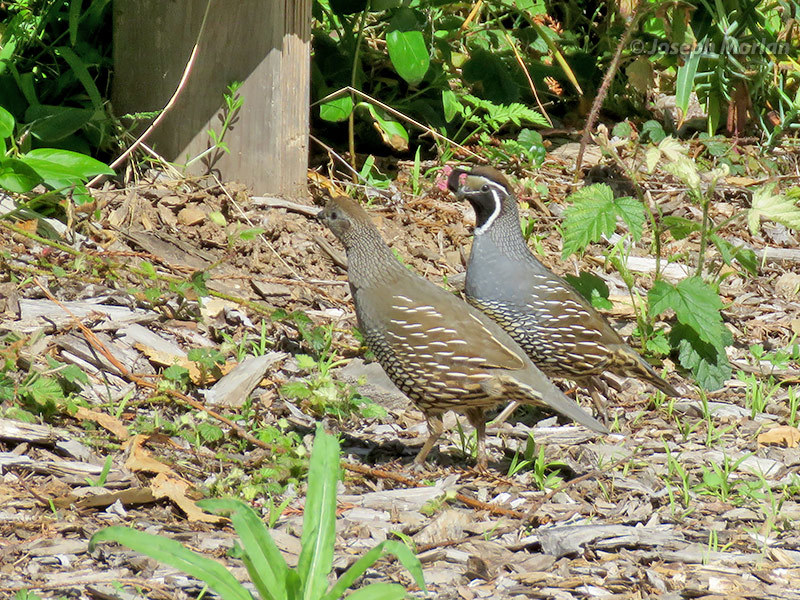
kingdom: Animalia
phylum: Chordata
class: Aves
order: Galliformes
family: Odontophoridae
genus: Callipepla
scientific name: Callipepla californica
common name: California quail
